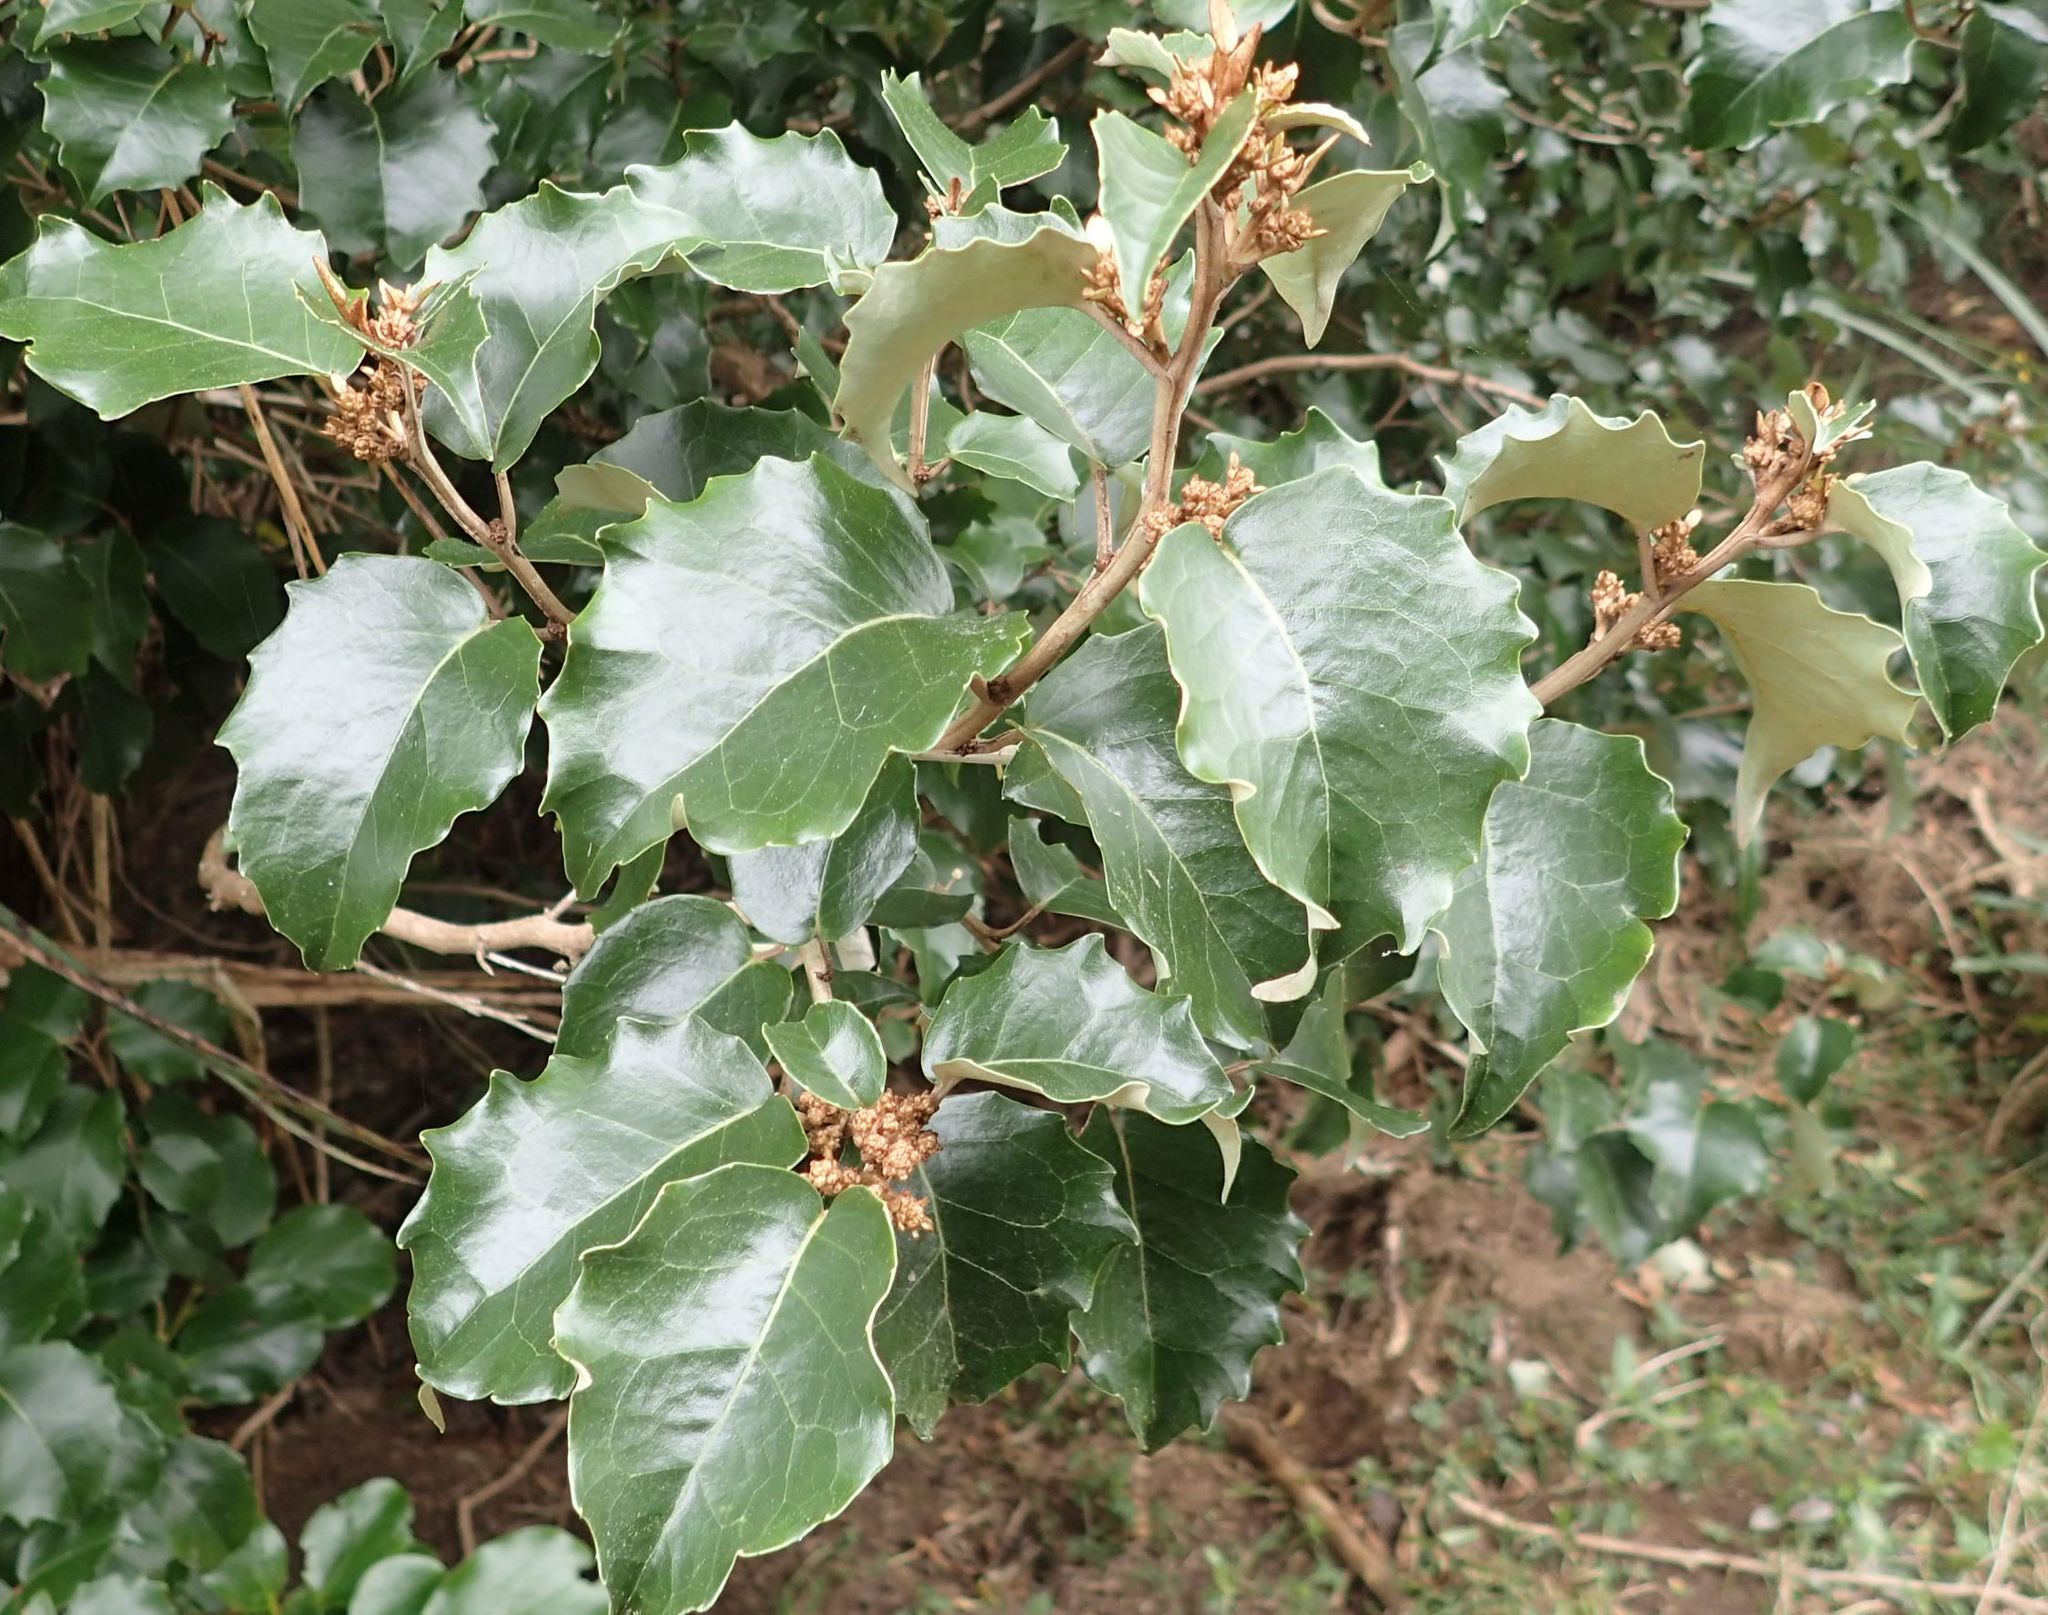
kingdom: Plantae
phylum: Tracheophyta
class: Magnoliopsida
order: Asterales
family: Asteraceae
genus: Olearia
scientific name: Olearia arborescens
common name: Glossy tree daisy
